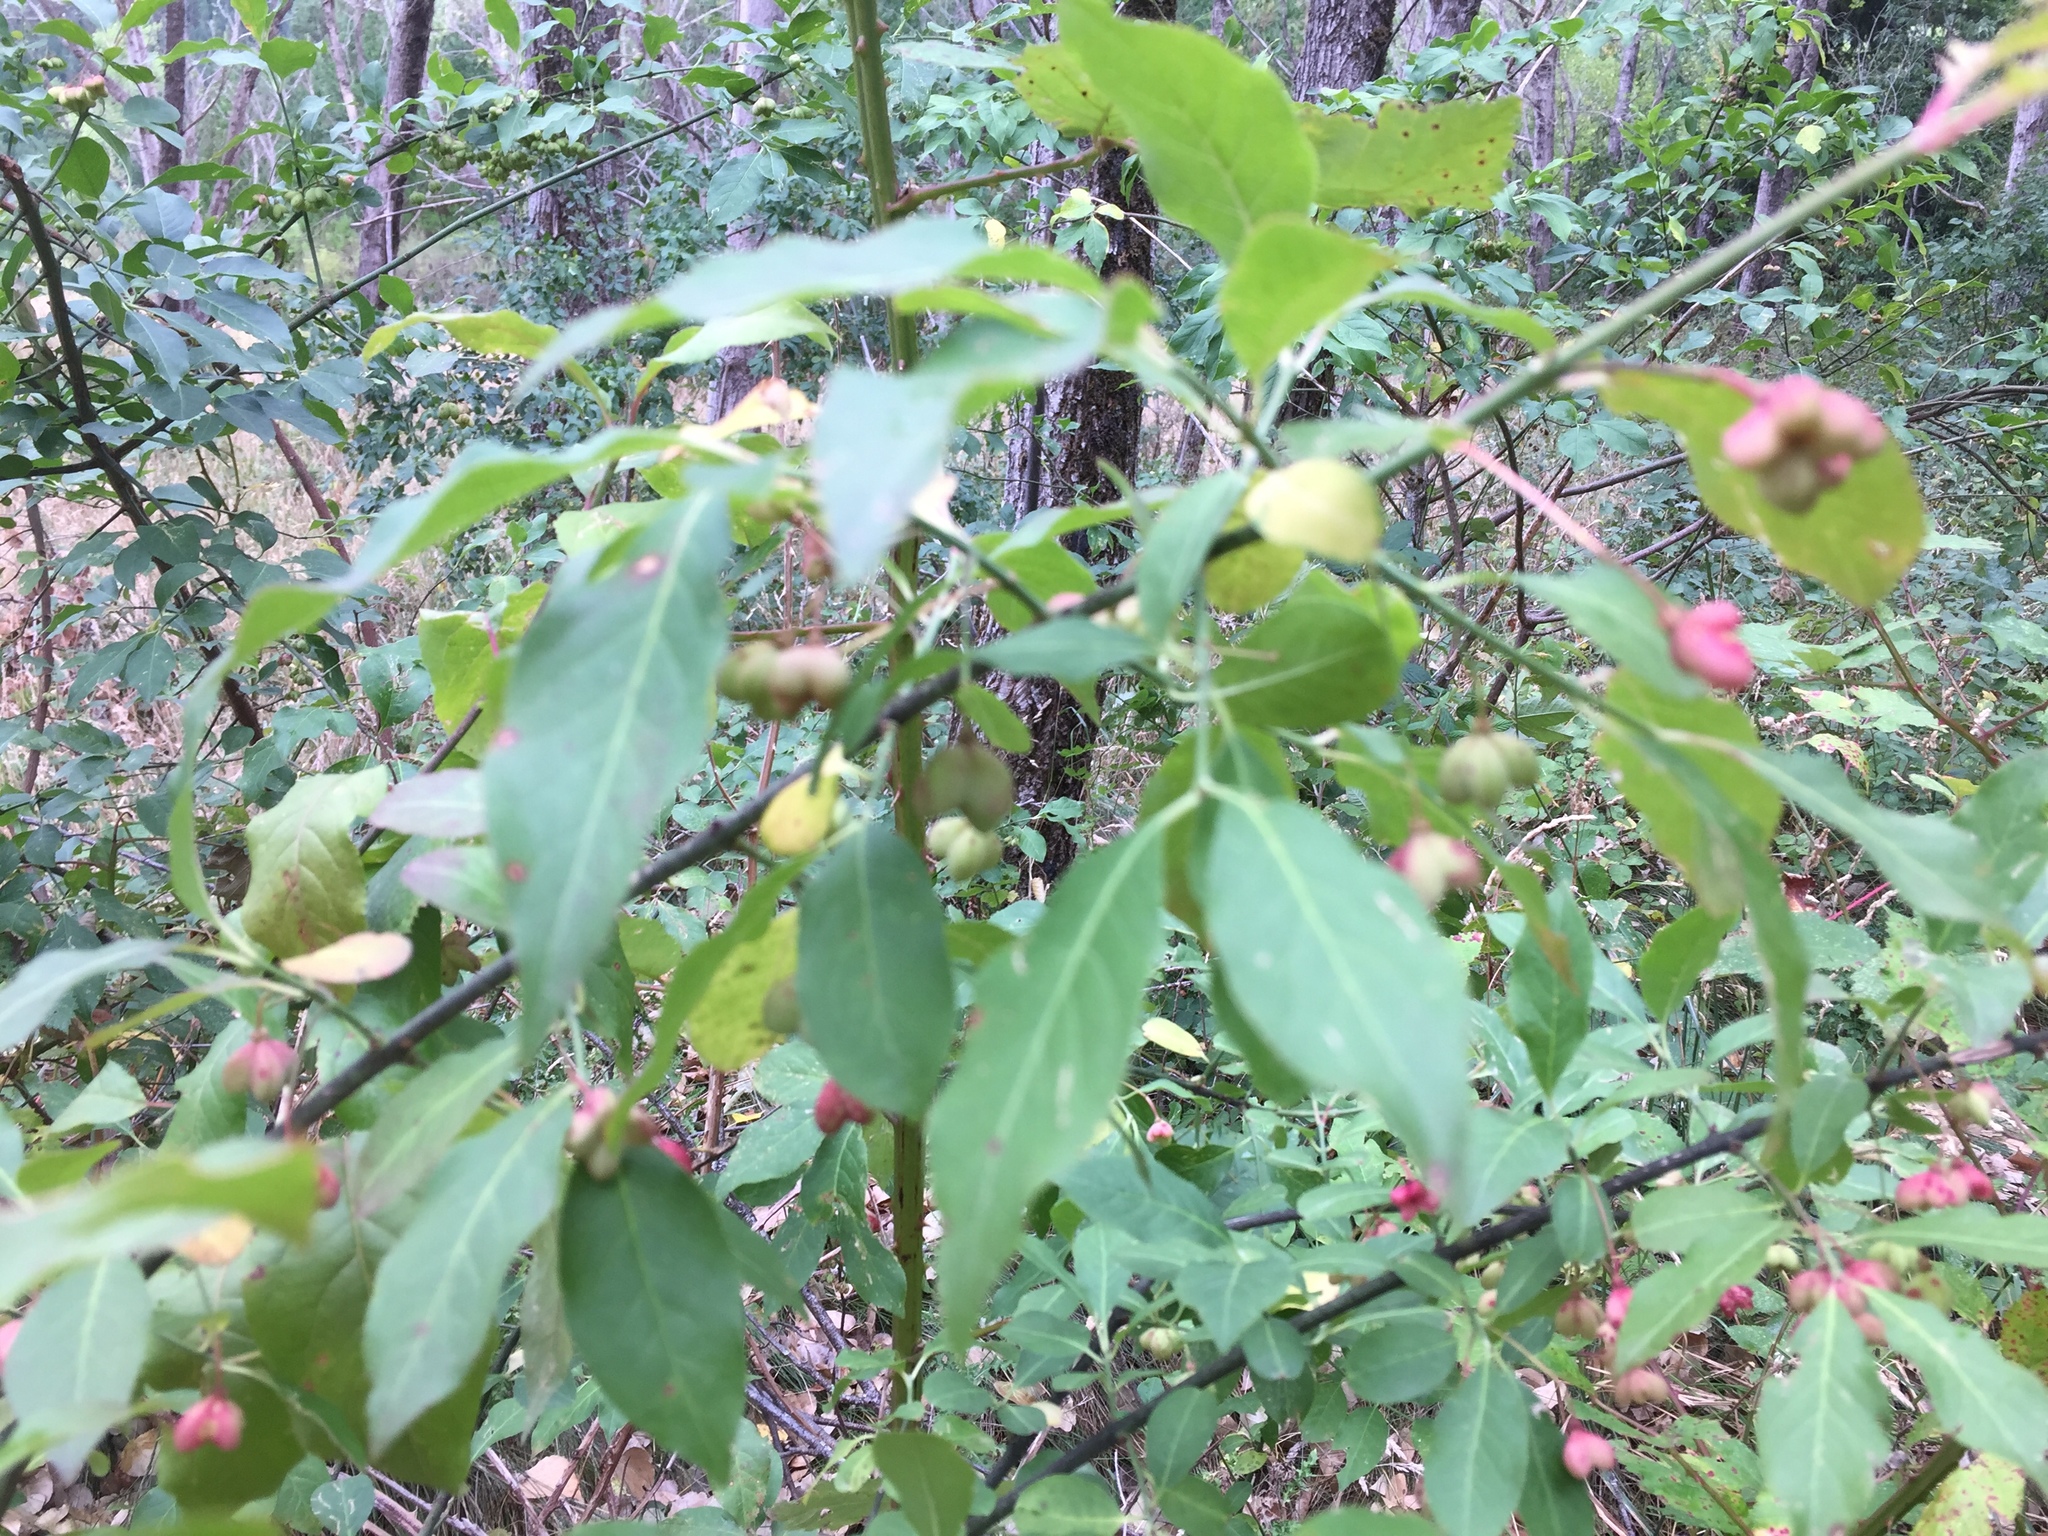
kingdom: Plantae
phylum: Tracheophyta
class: Magnoliopsida
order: Celastrales
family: Celastraceae
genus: Euonymus
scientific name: Euonymus europaeus
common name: Spindle
